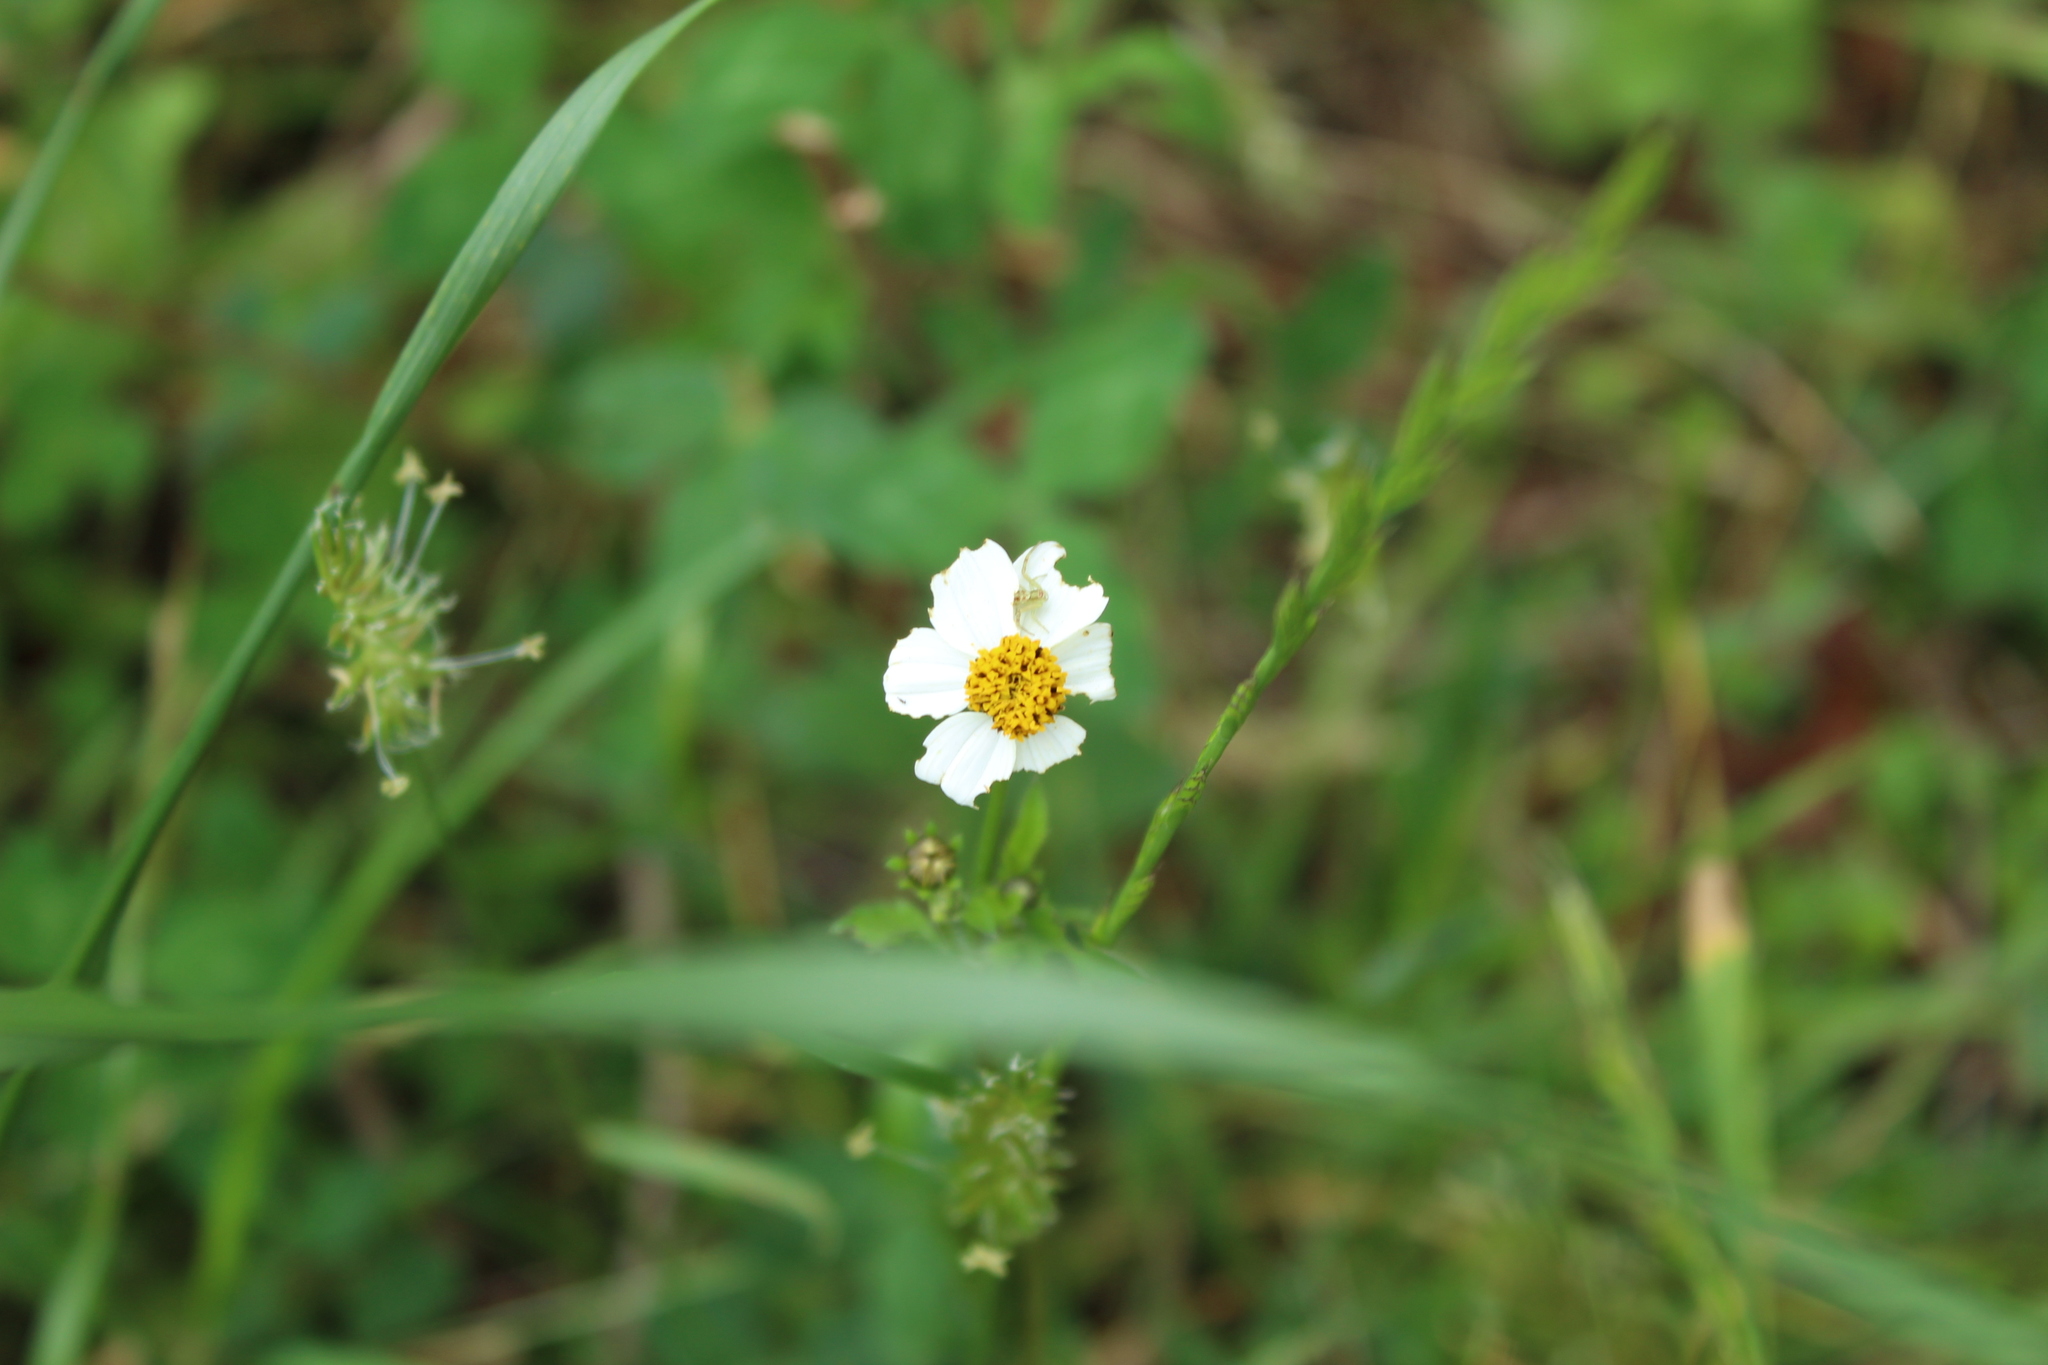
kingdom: Plantae
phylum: Tracheophyta
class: Magnoliopsida
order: Asterales
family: Asteraceae
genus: Bidens
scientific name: Bidens alba
